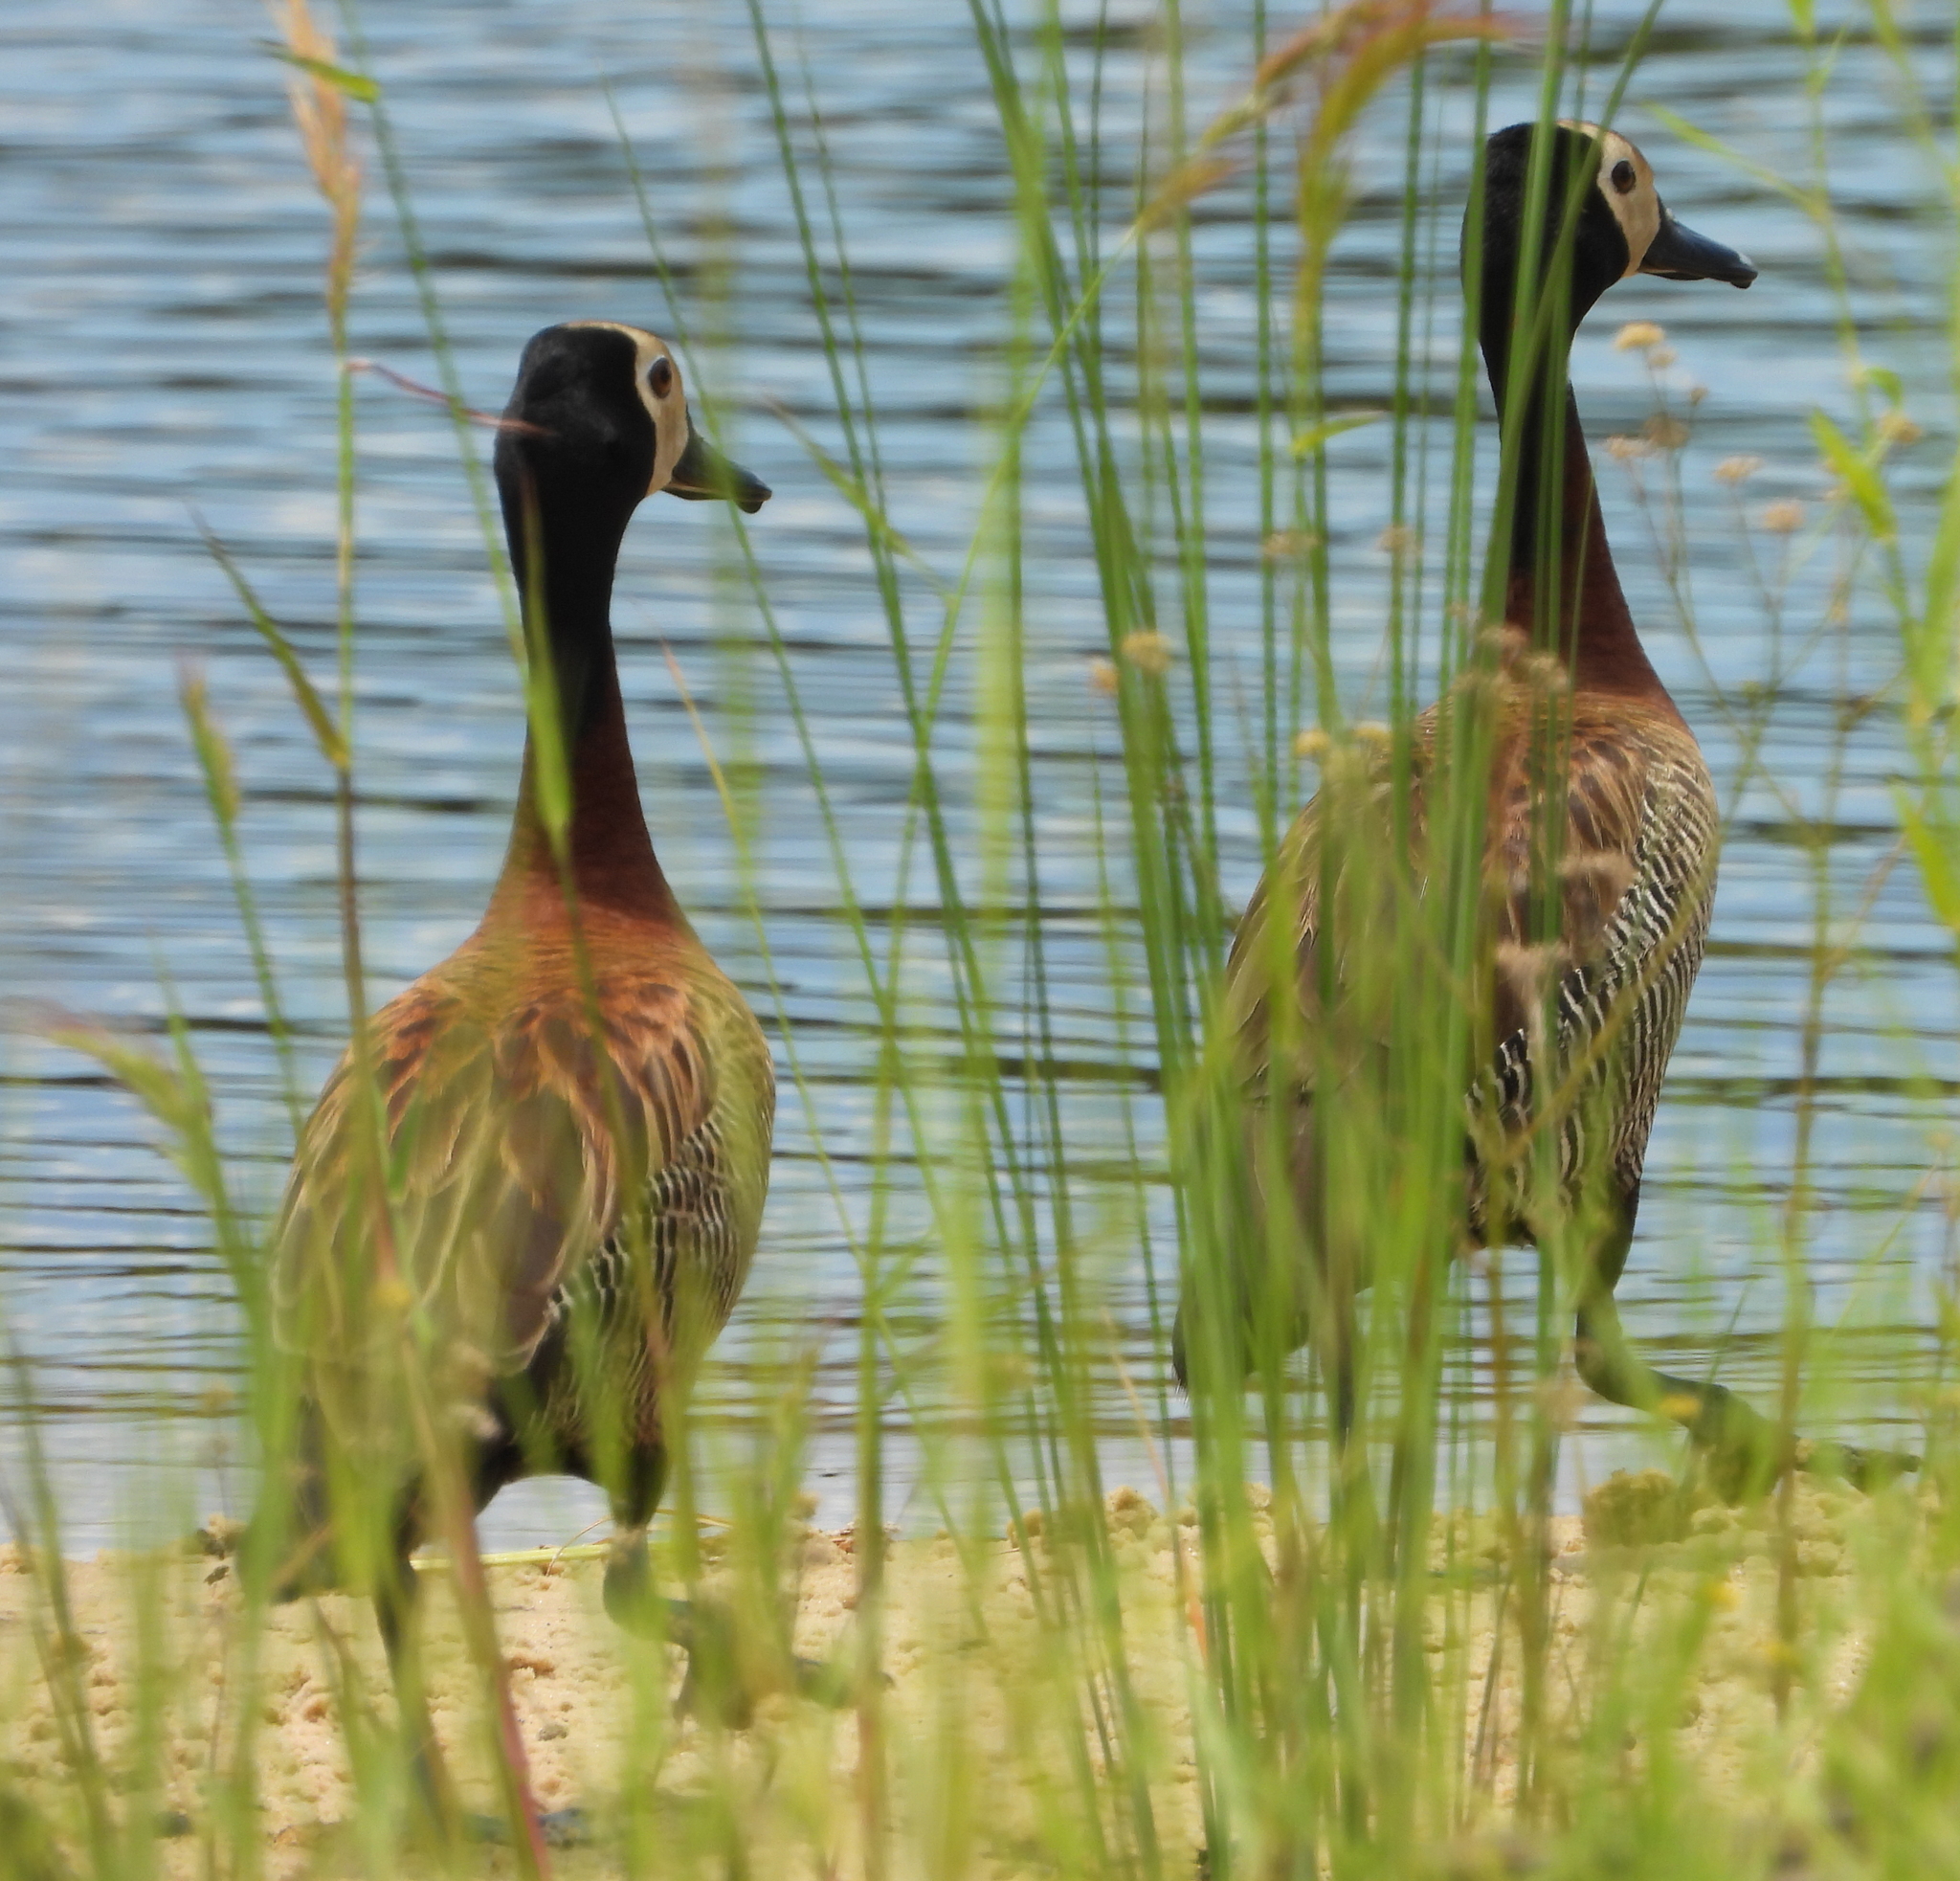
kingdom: Animalia
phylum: Chordata
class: Aves
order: Anseriformes
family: Anatidae
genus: Dendrocygna
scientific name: Dendrocygna viduata
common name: White-faced whistling duck
